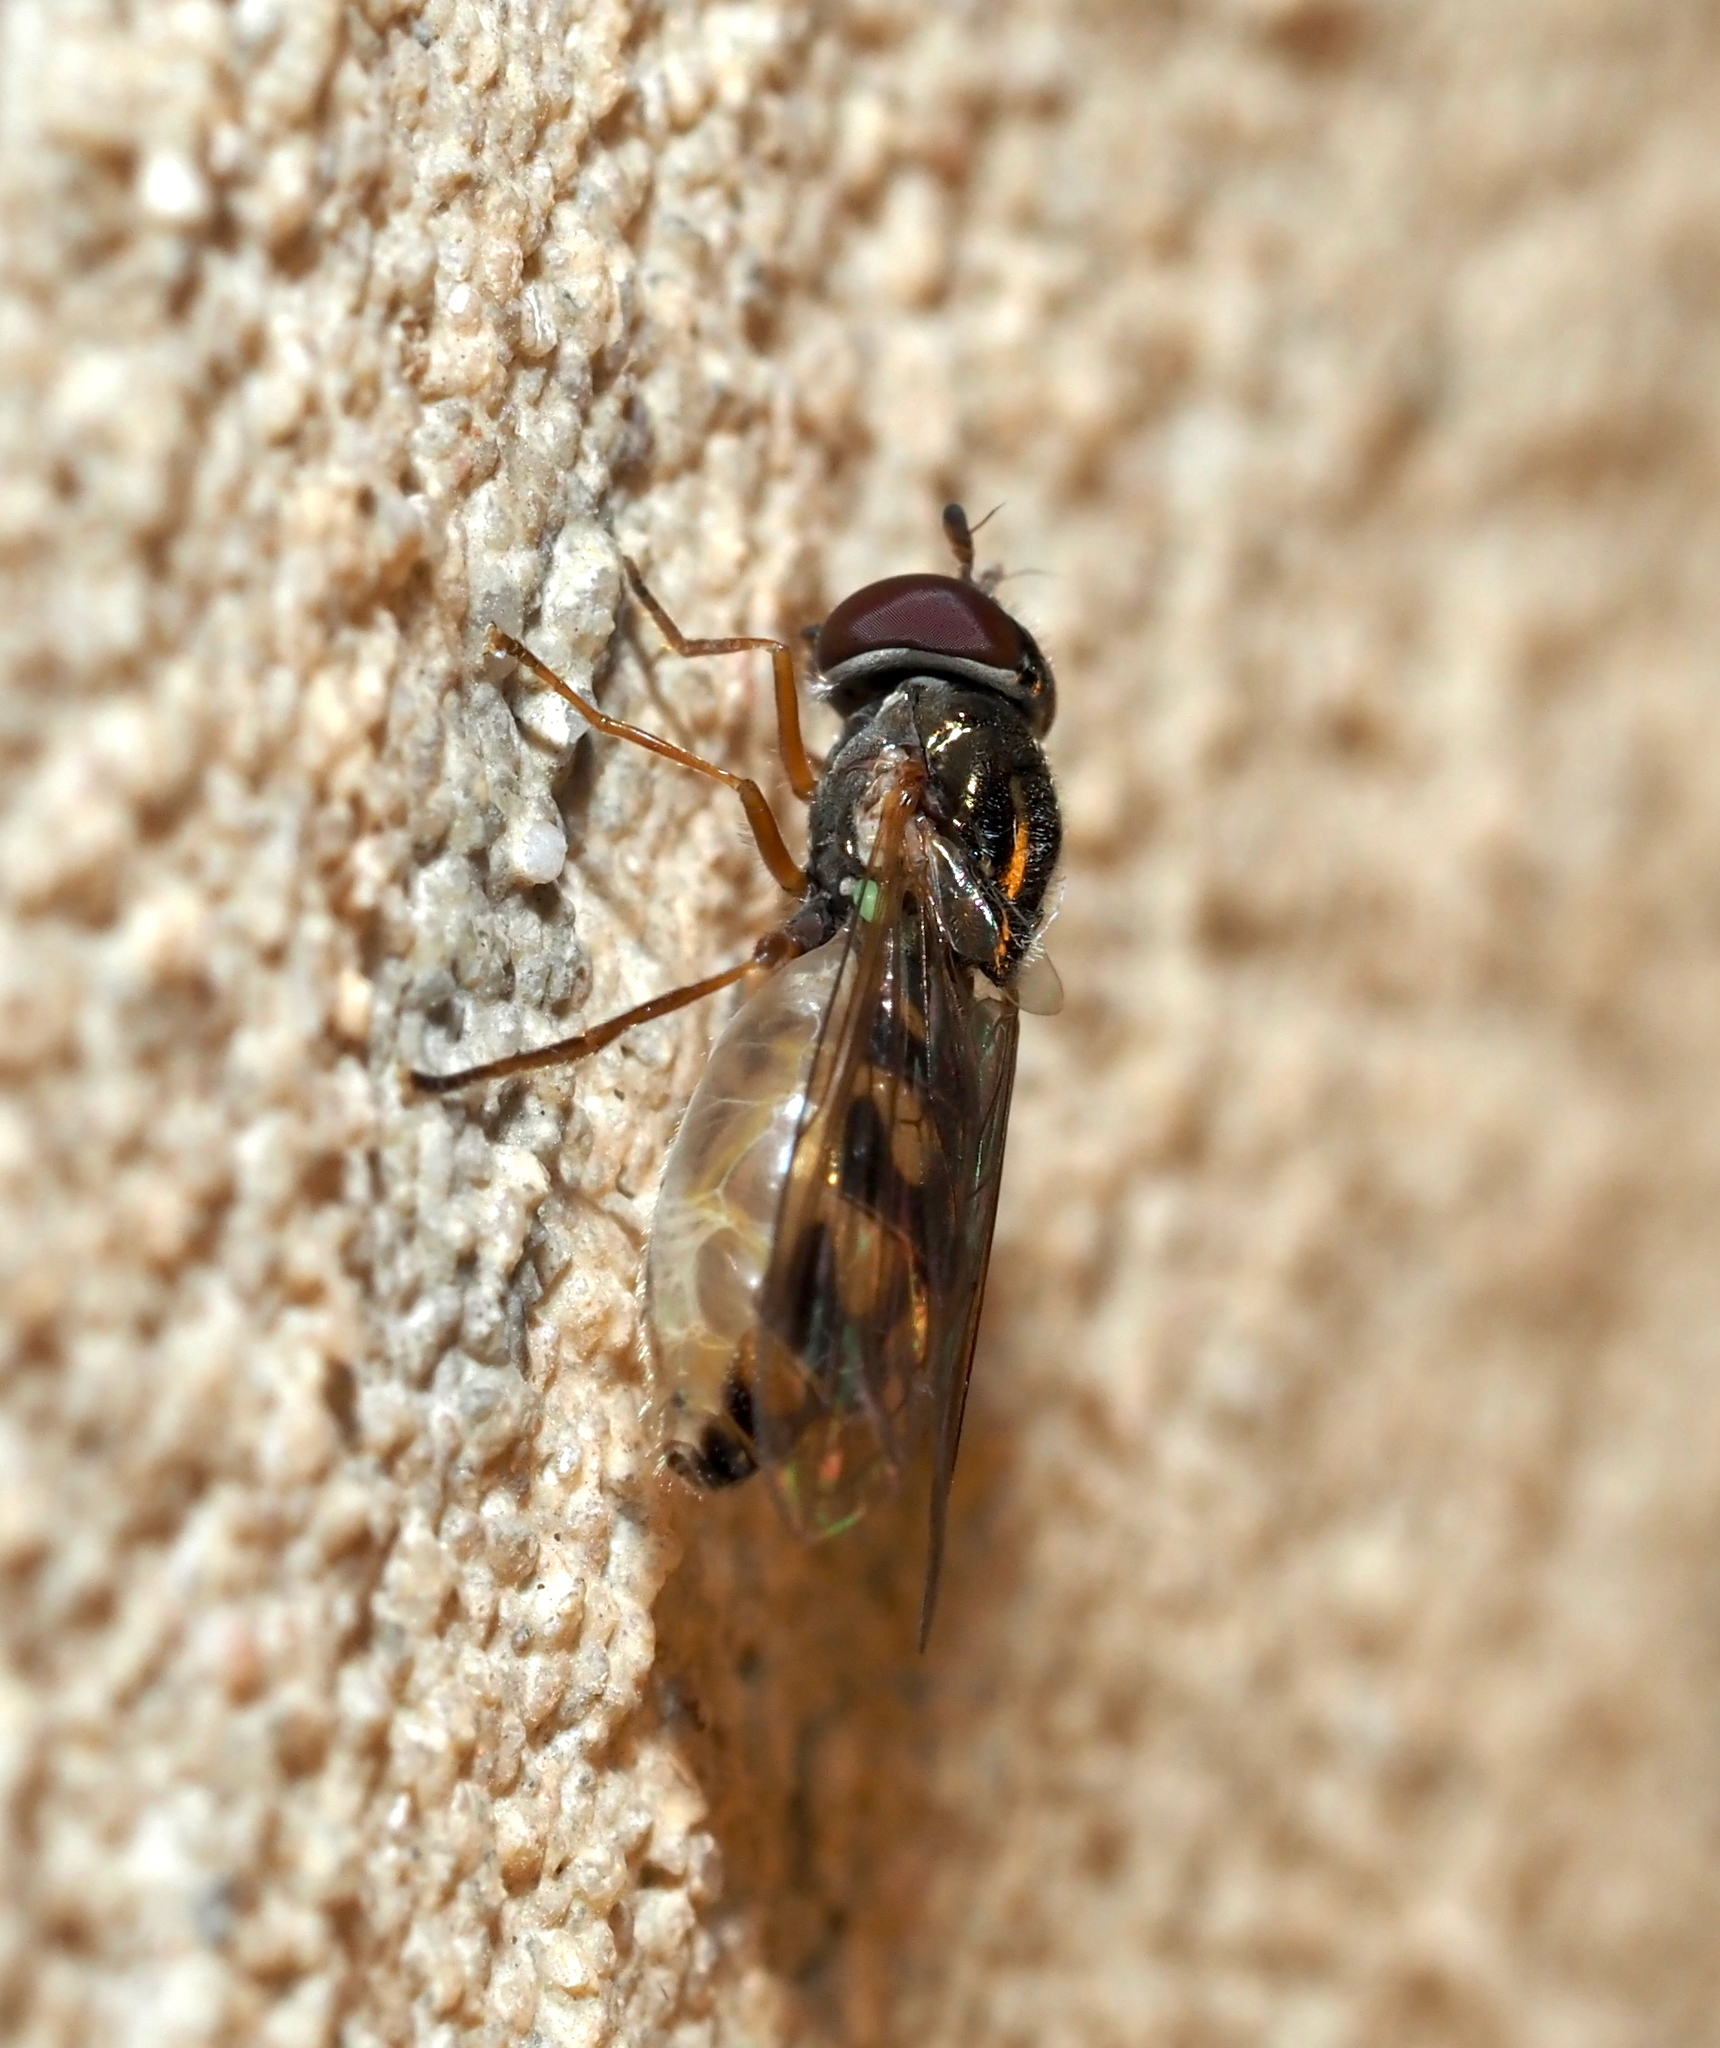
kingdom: Animalia
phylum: Arthropoda
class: Insecta
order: Diptera
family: Syrphidae
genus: Melanostoma
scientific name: Melanostoma mellina
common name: Hover fly
